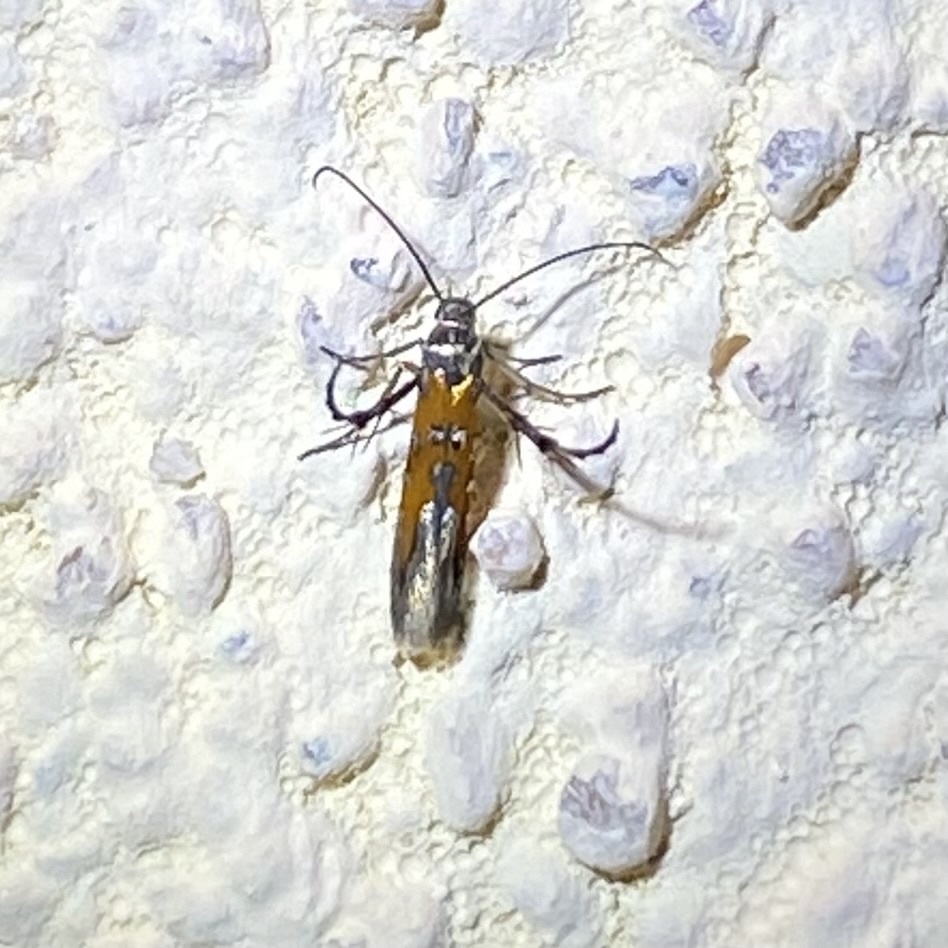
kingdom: Animalia
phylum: Arthropoda
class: Insecta
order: Lepidoptera
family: Heliodinidae
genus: Heliodines
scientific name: Heliodines
